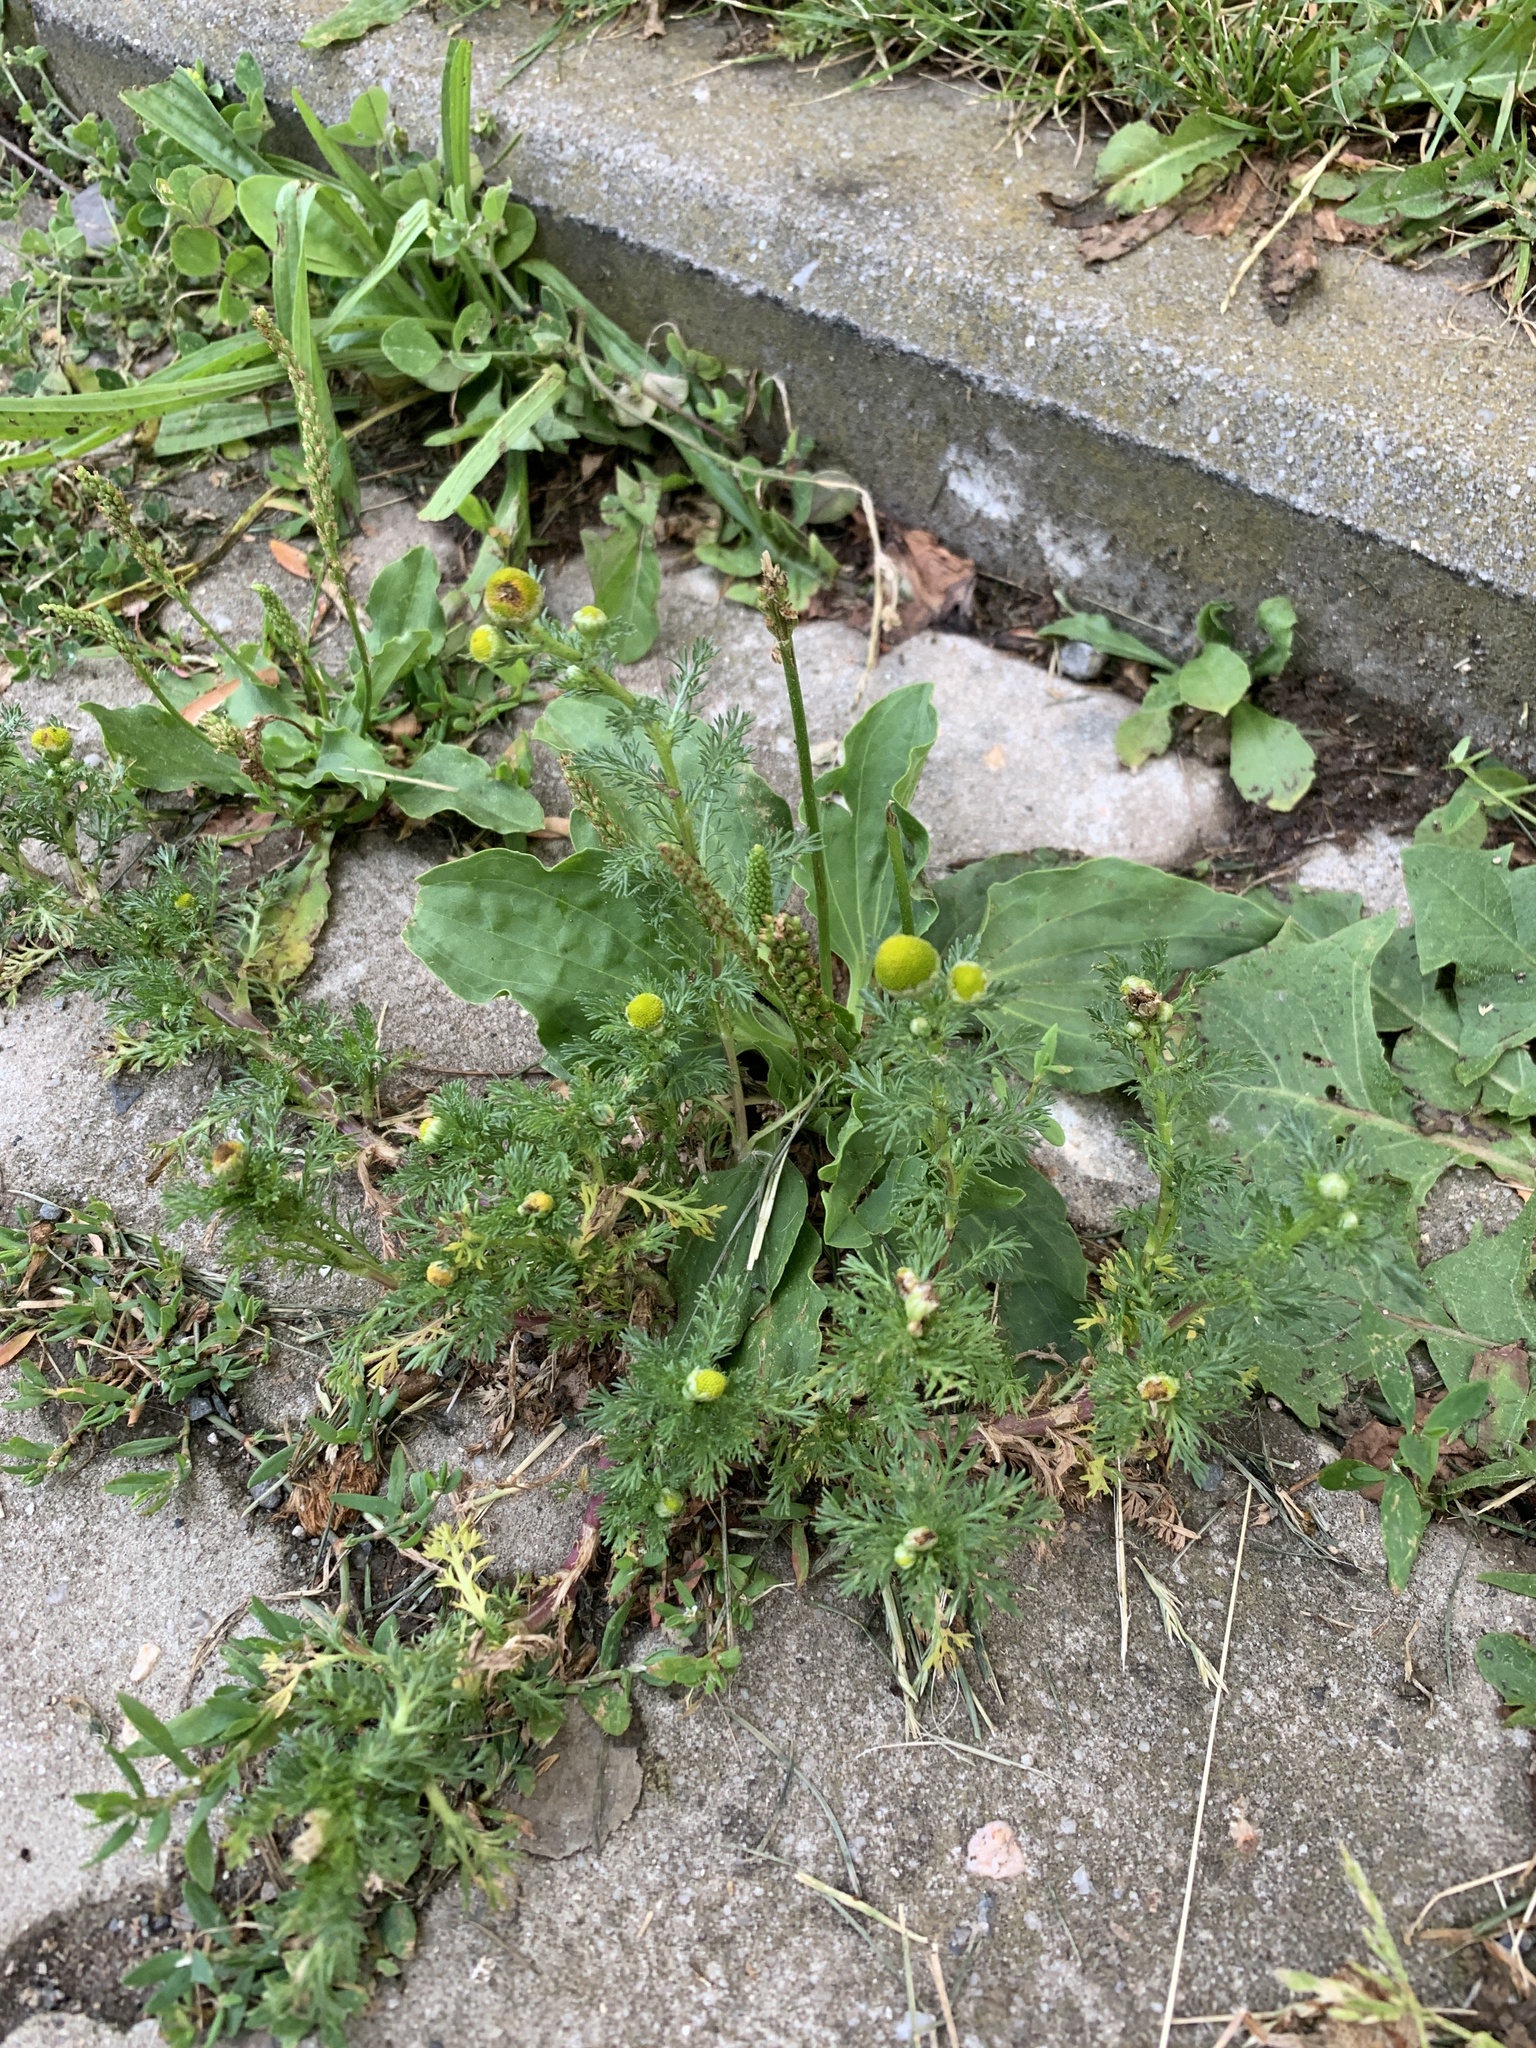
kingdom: Plantae
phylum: Tracheophyta
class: Magnoliopsida
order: Asterales
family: Asteraceae
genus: Matricaria
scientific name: Matricaria discoidea
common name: Disc mayweed
